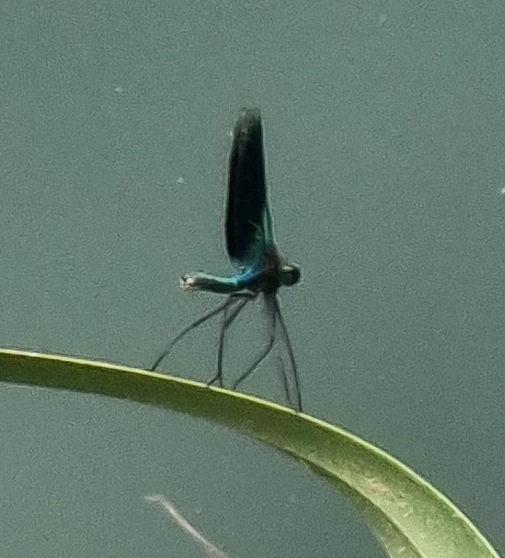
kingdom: Animalia
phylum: Arthropoda
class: Insecta
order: Odonata
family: Calopterygidae
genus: Calopteryx
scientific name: Calopteryx splendens
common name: Banded demoiselle
